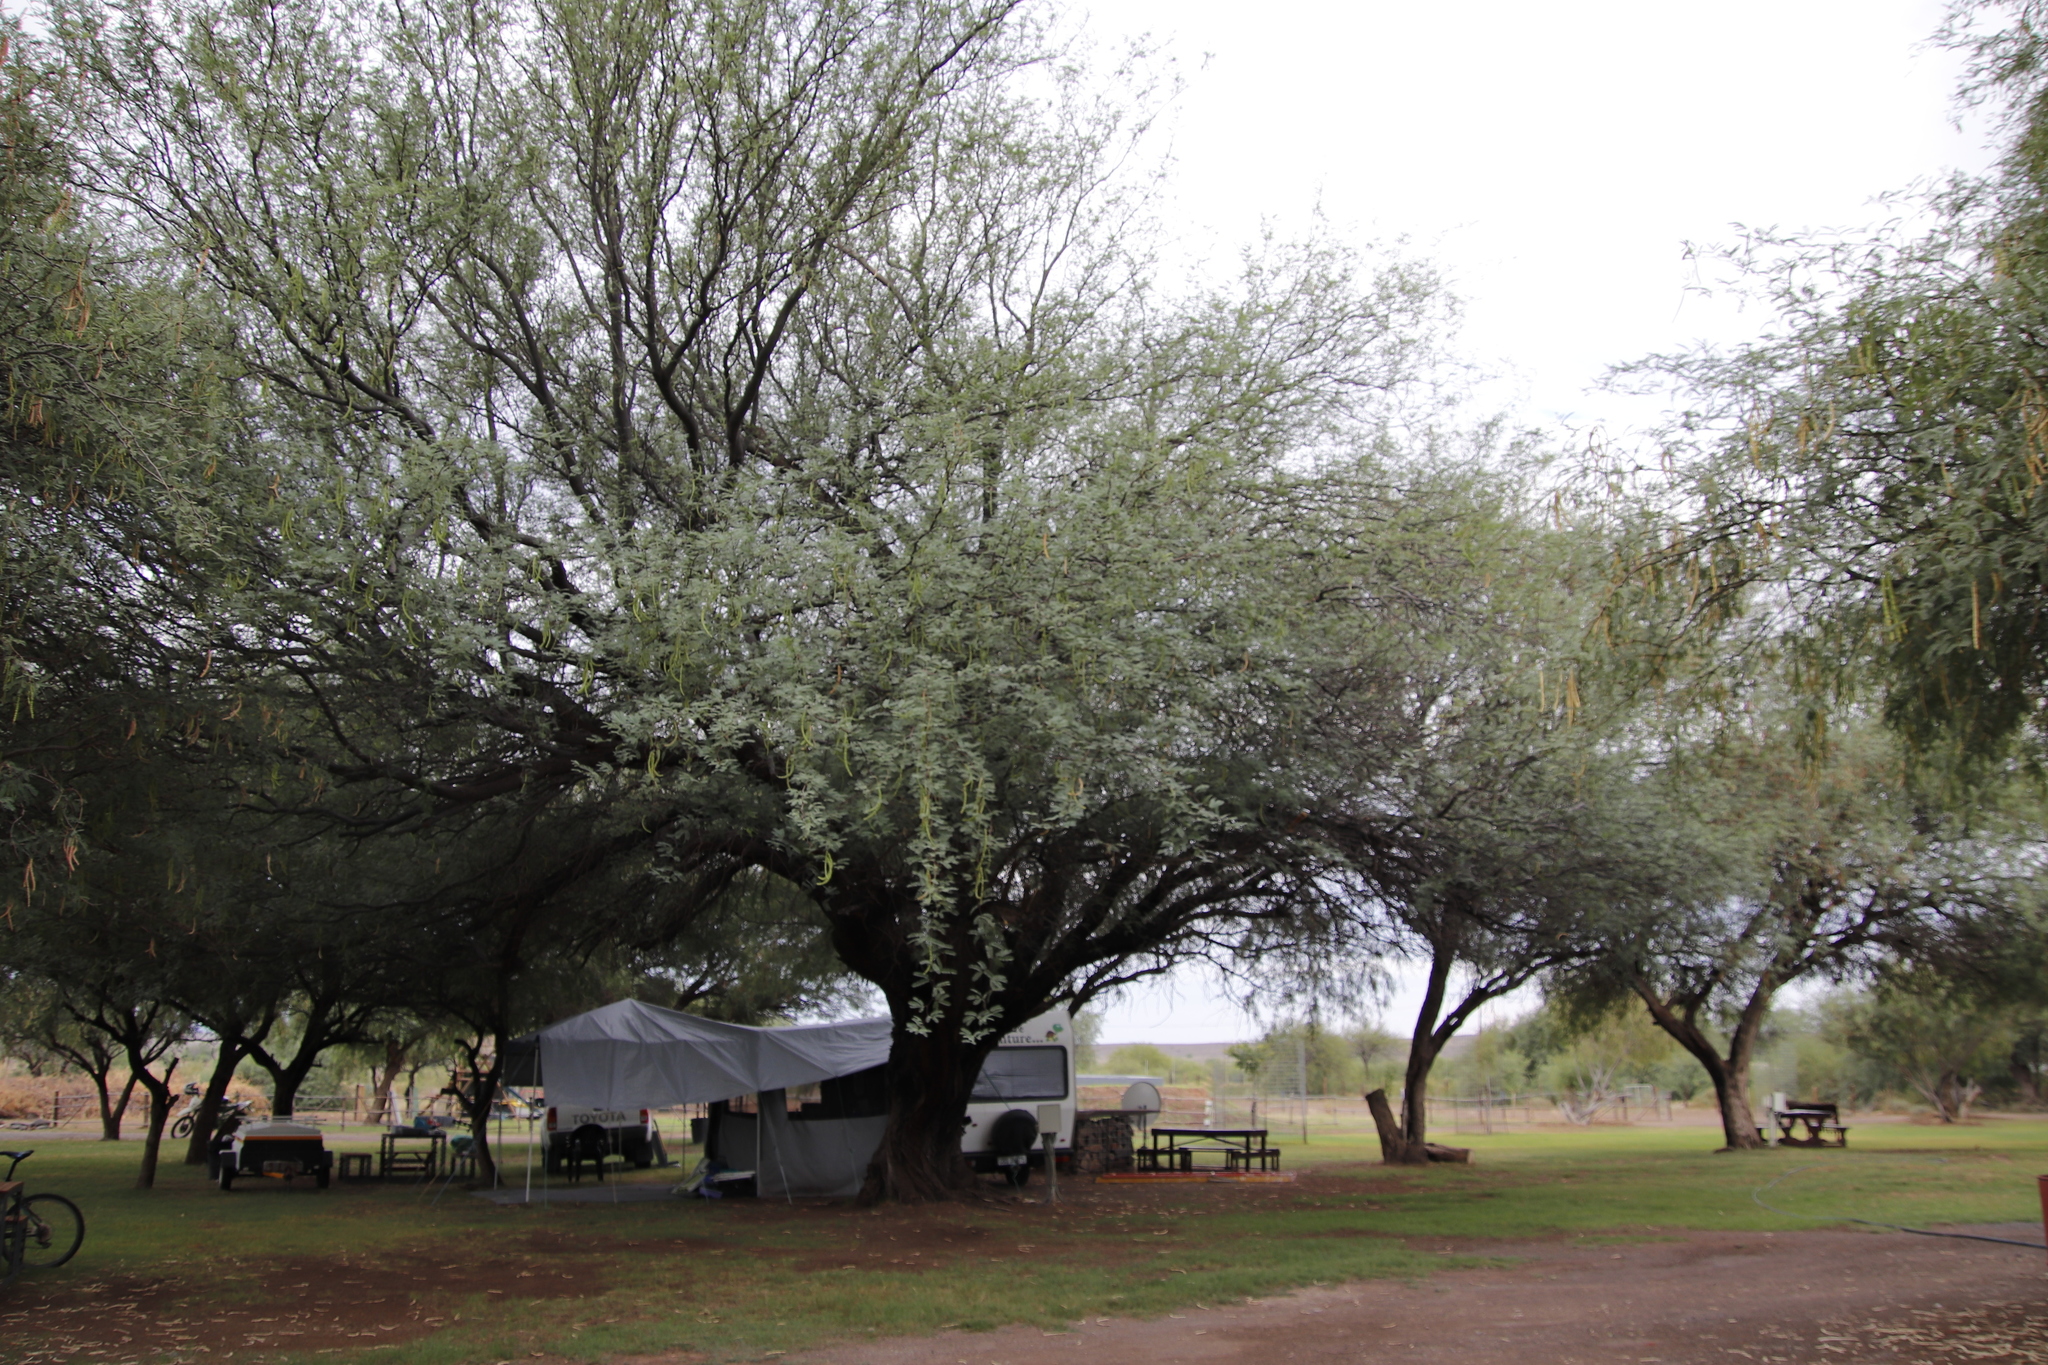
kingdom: Plantae
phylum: Tracheophyta
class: Magnoliopsida
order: Fabales
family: Fabaceae
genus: Prosopis
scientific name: Prosopis pubescens
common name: Screw-bean
